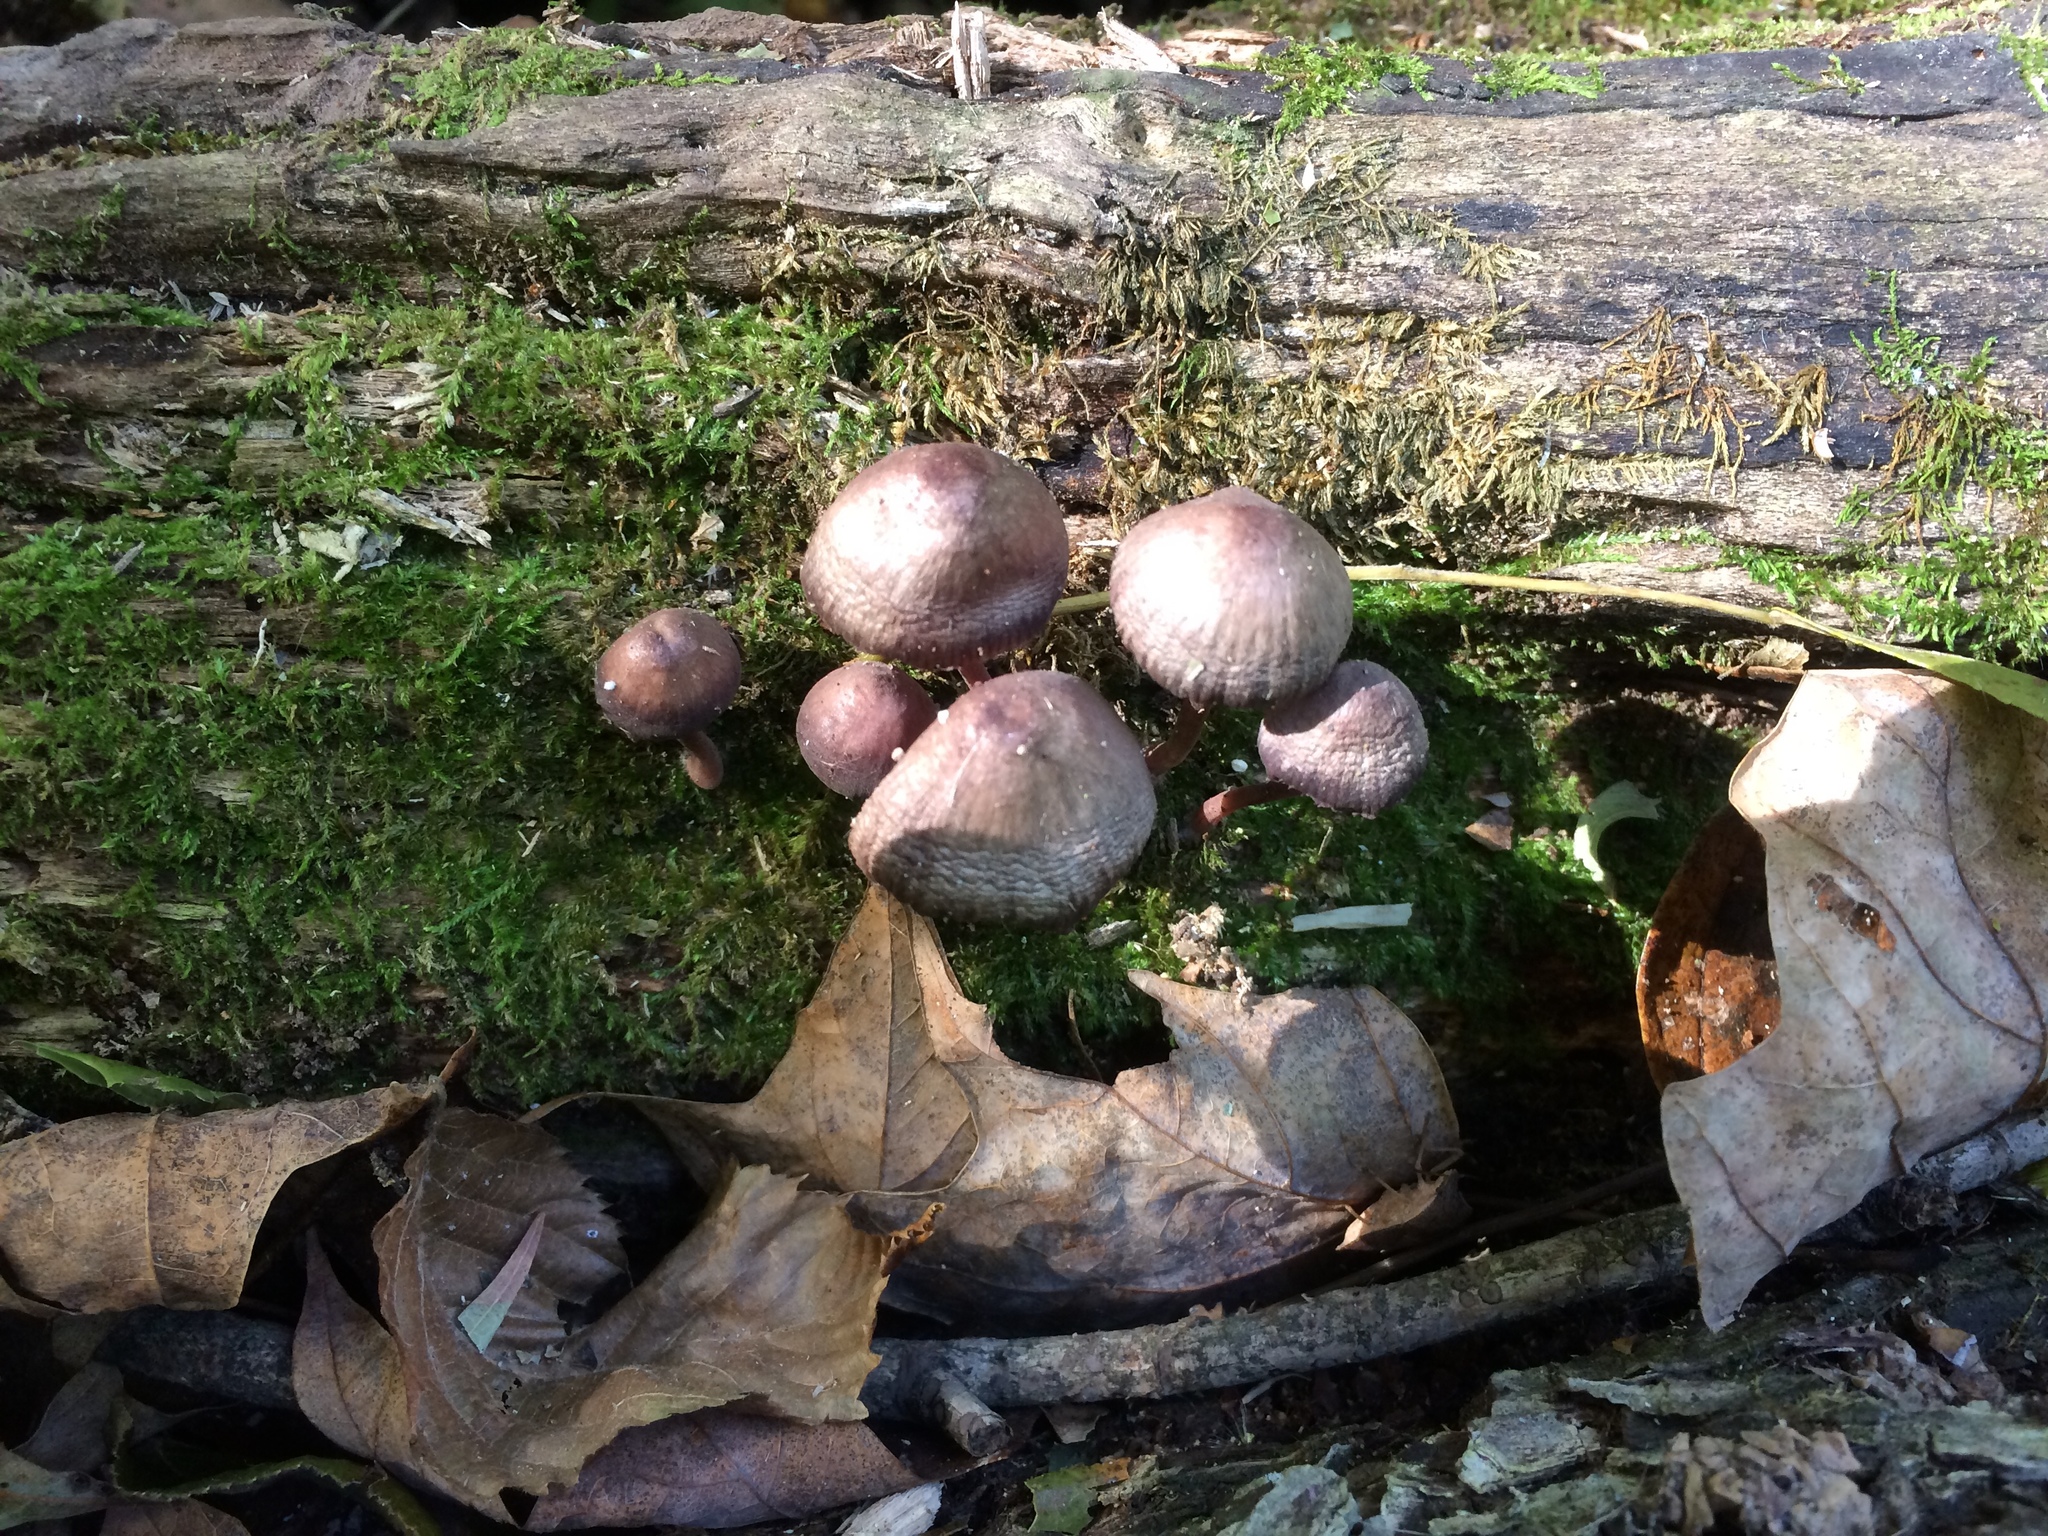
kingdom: Fungi
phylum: Basidiomycota
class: Agaricomycetes
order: Agaricales
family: Mycenaceae
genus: Mycena
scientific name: Mycena haematopus
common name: Burgundydrop bonnet
